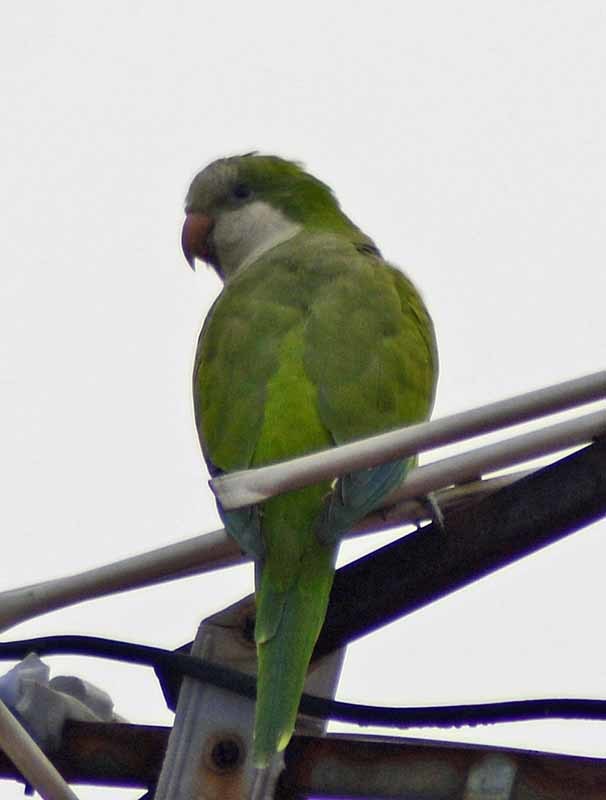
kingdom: Animalia
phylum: Chordata
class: Aves
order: Psittaciformes
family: Psittacidae
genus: Myiopsitta
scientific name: Myiopsitta monachus
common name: Monk parakeet
